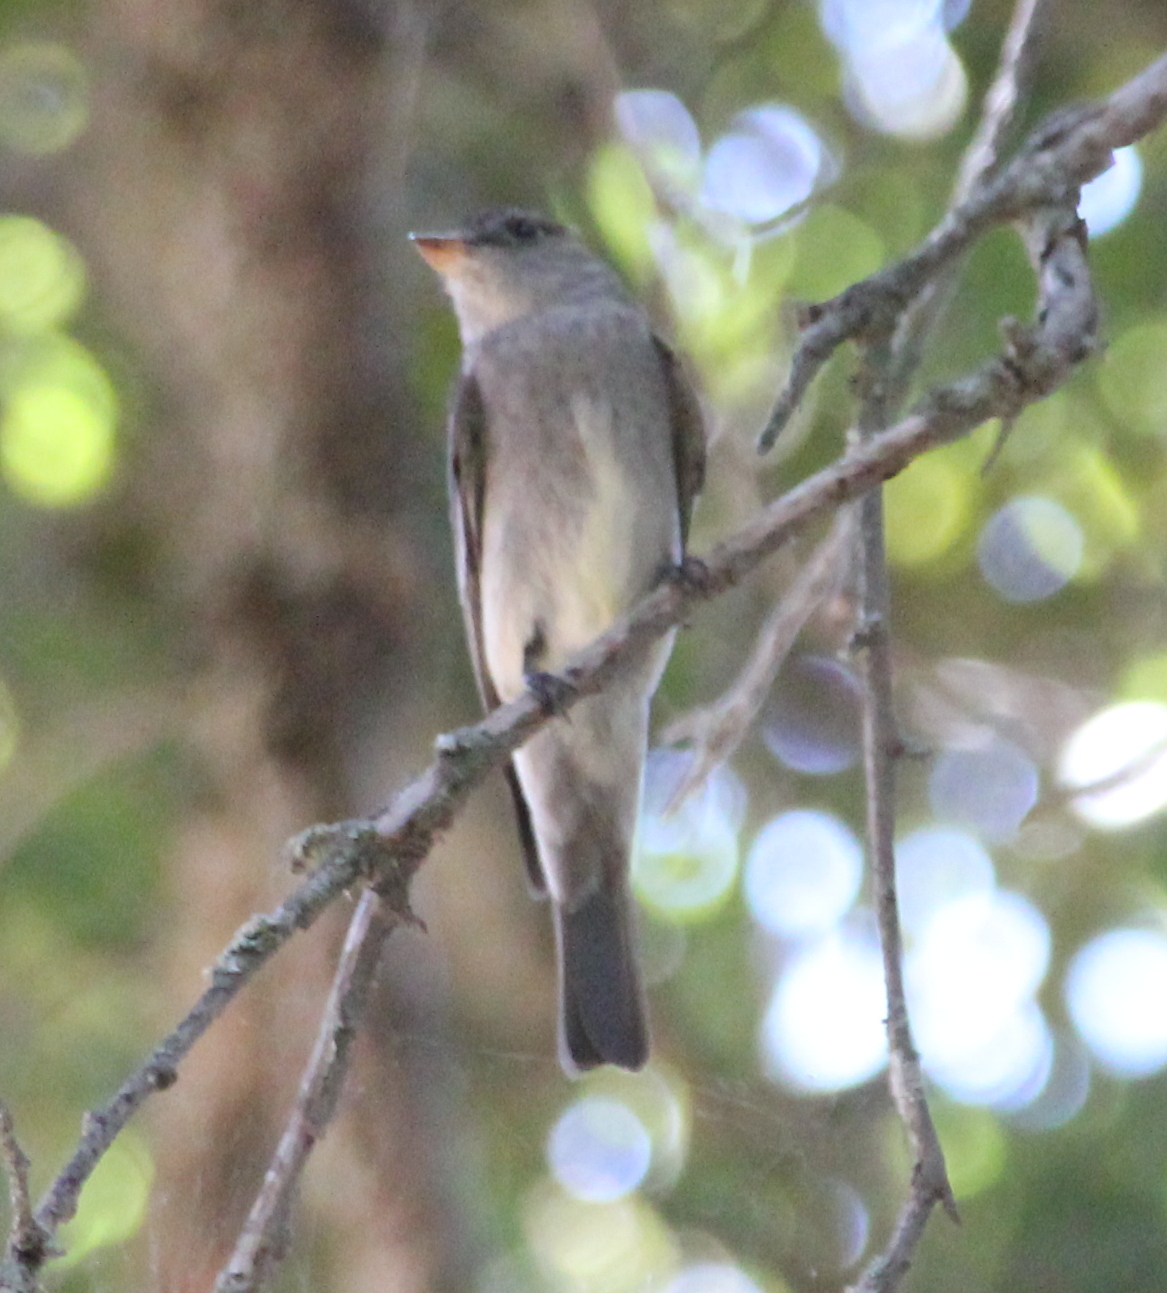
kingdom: Animalia
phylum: Chordata
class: Aves
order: Passeriformes
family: Tyrannidae
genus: Contopus
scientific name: Contopus sordidulus
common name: Western wood-pewee
